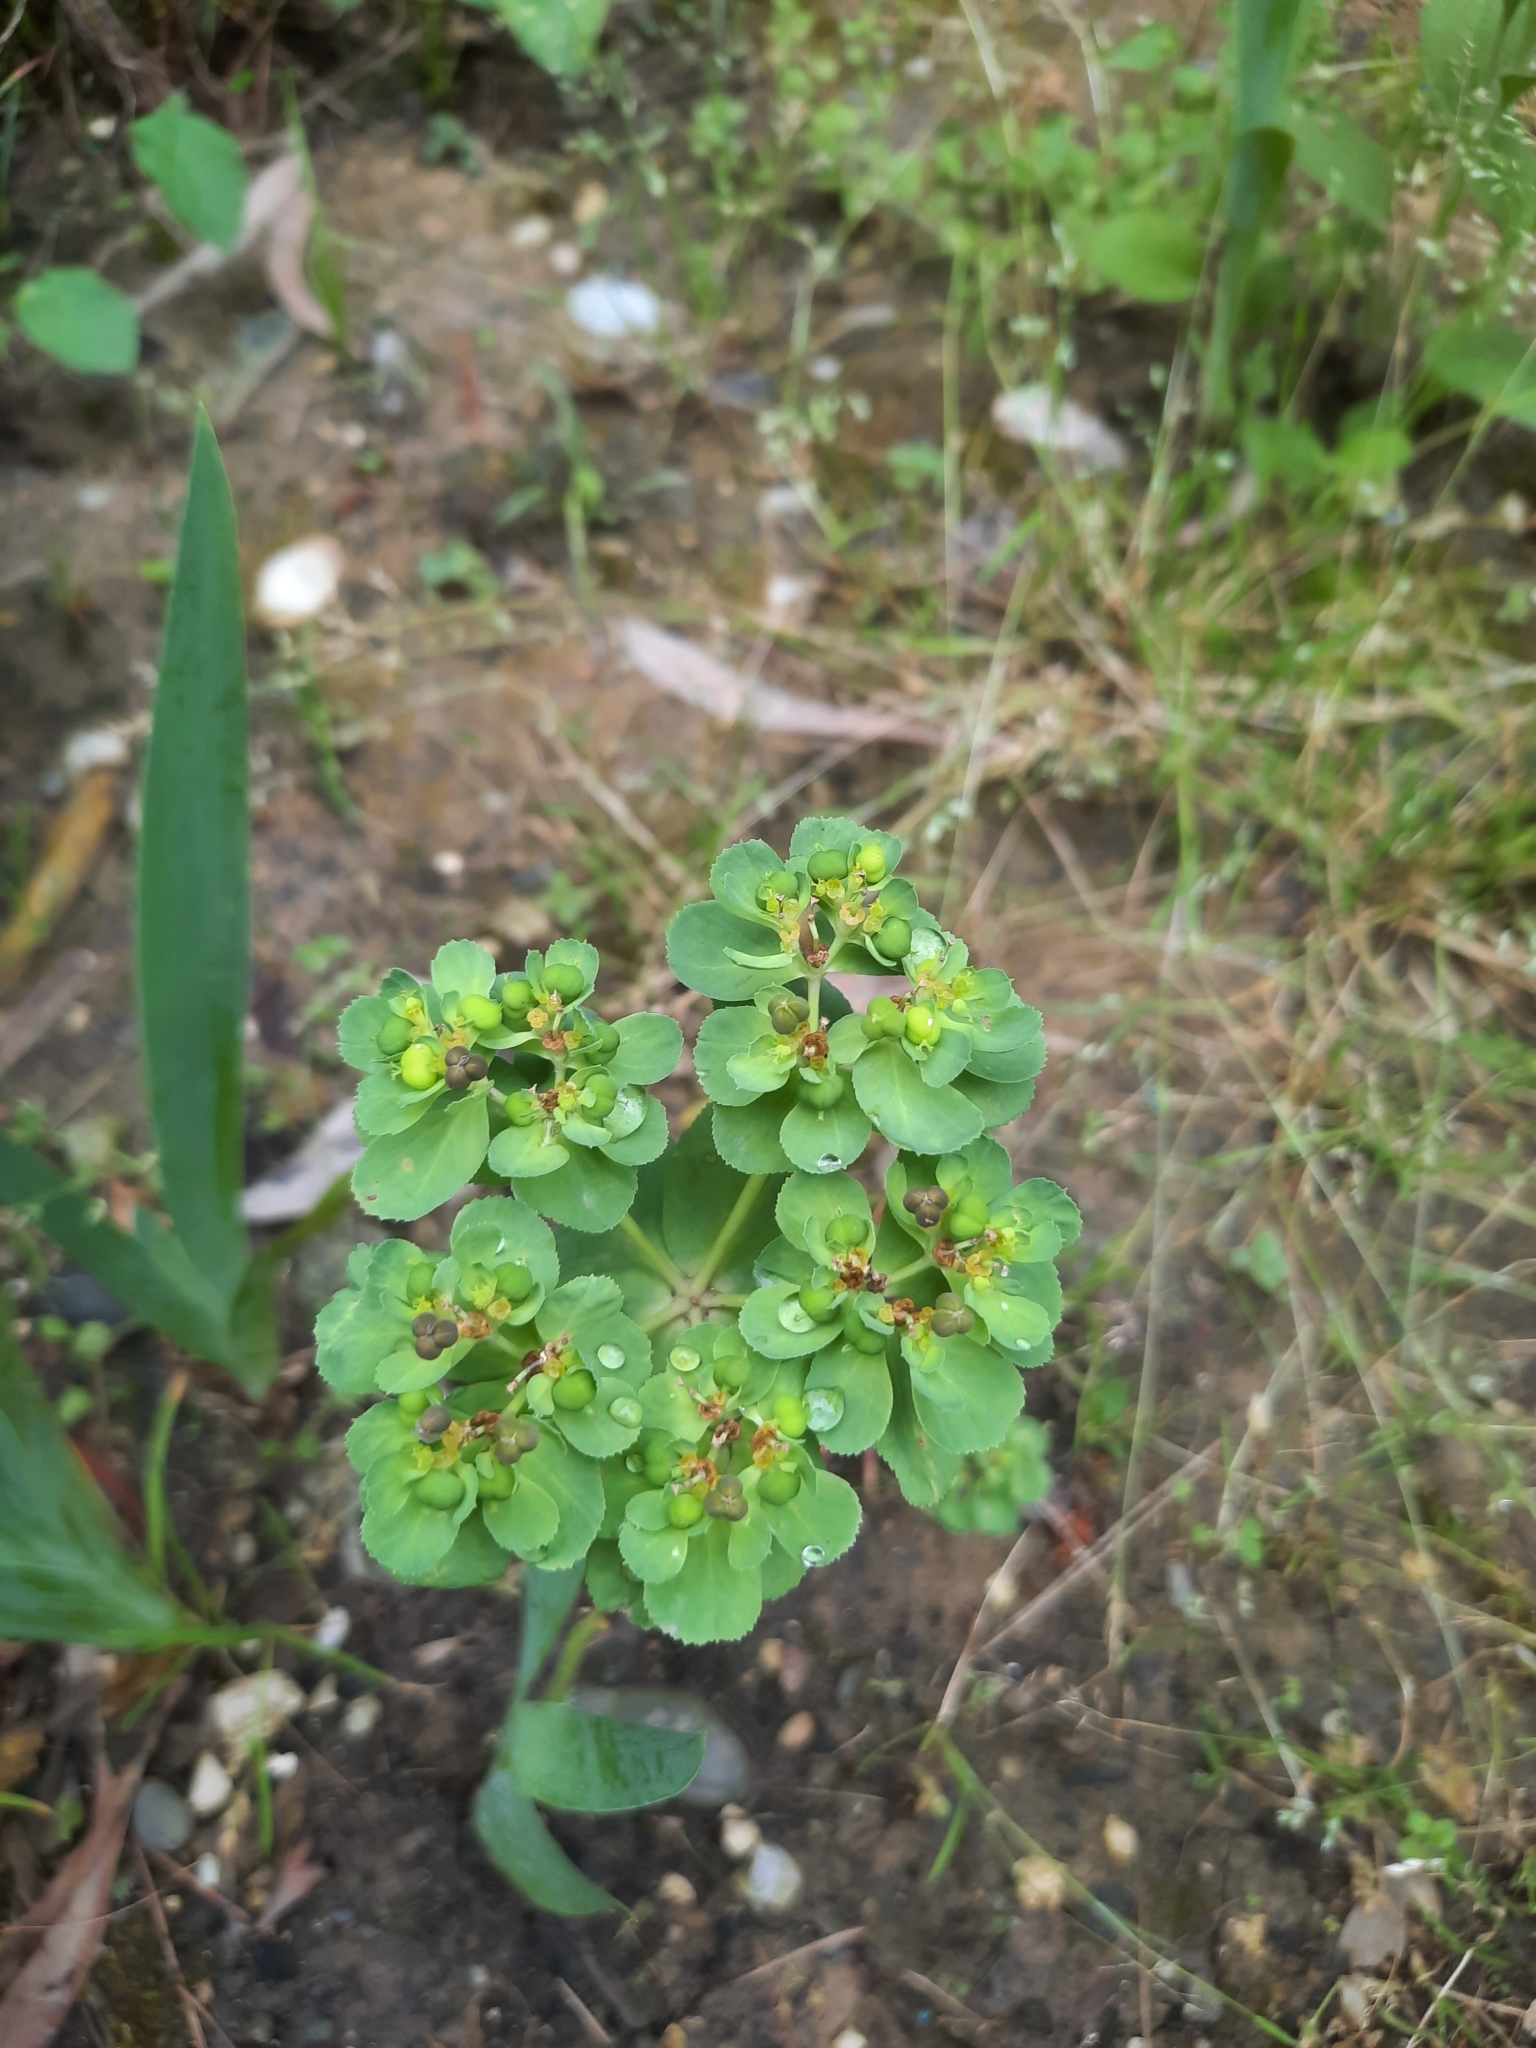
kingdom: Plantae
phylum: Tracheophyta
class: Magnoliopsida
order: Malpighiales
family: Euphorbiaceae
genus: Euphorbia
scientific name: Euphorbia helioscopia
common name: Sun spurge
